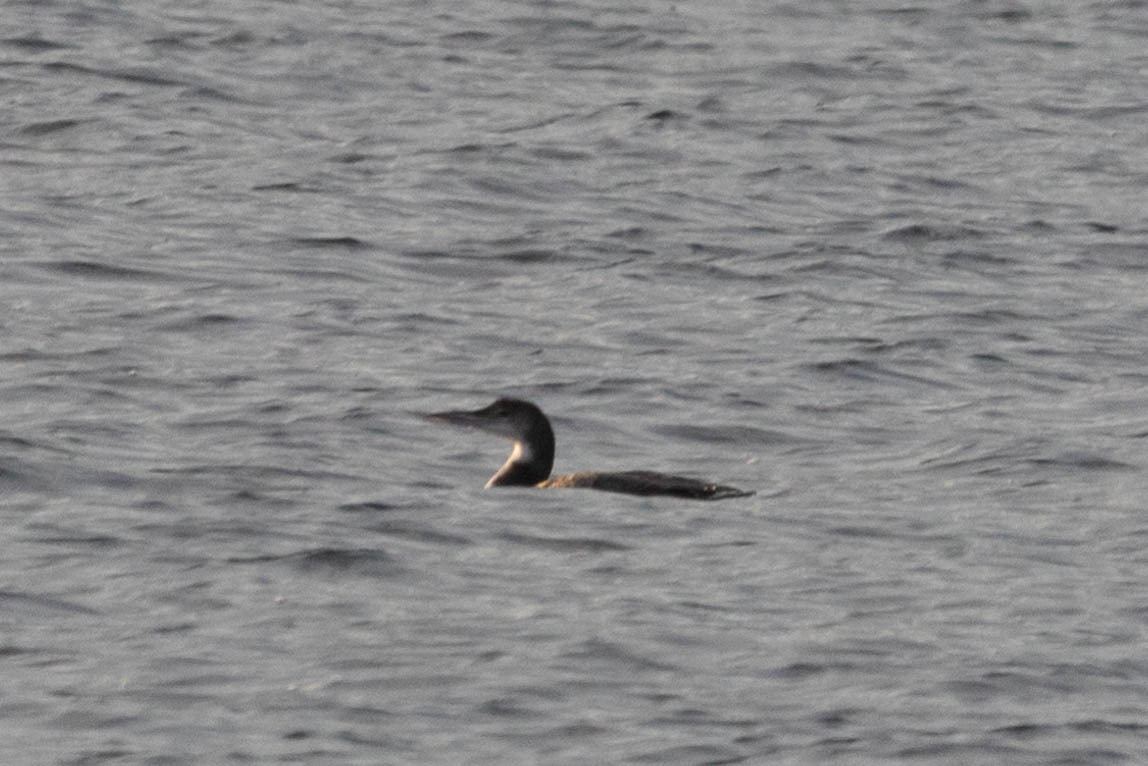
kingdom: Animalia
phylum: Chordata
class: Aves
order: Gaviiformes
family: Gaviidae
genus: Gavia
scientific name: Gavia immer
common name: Common loon
